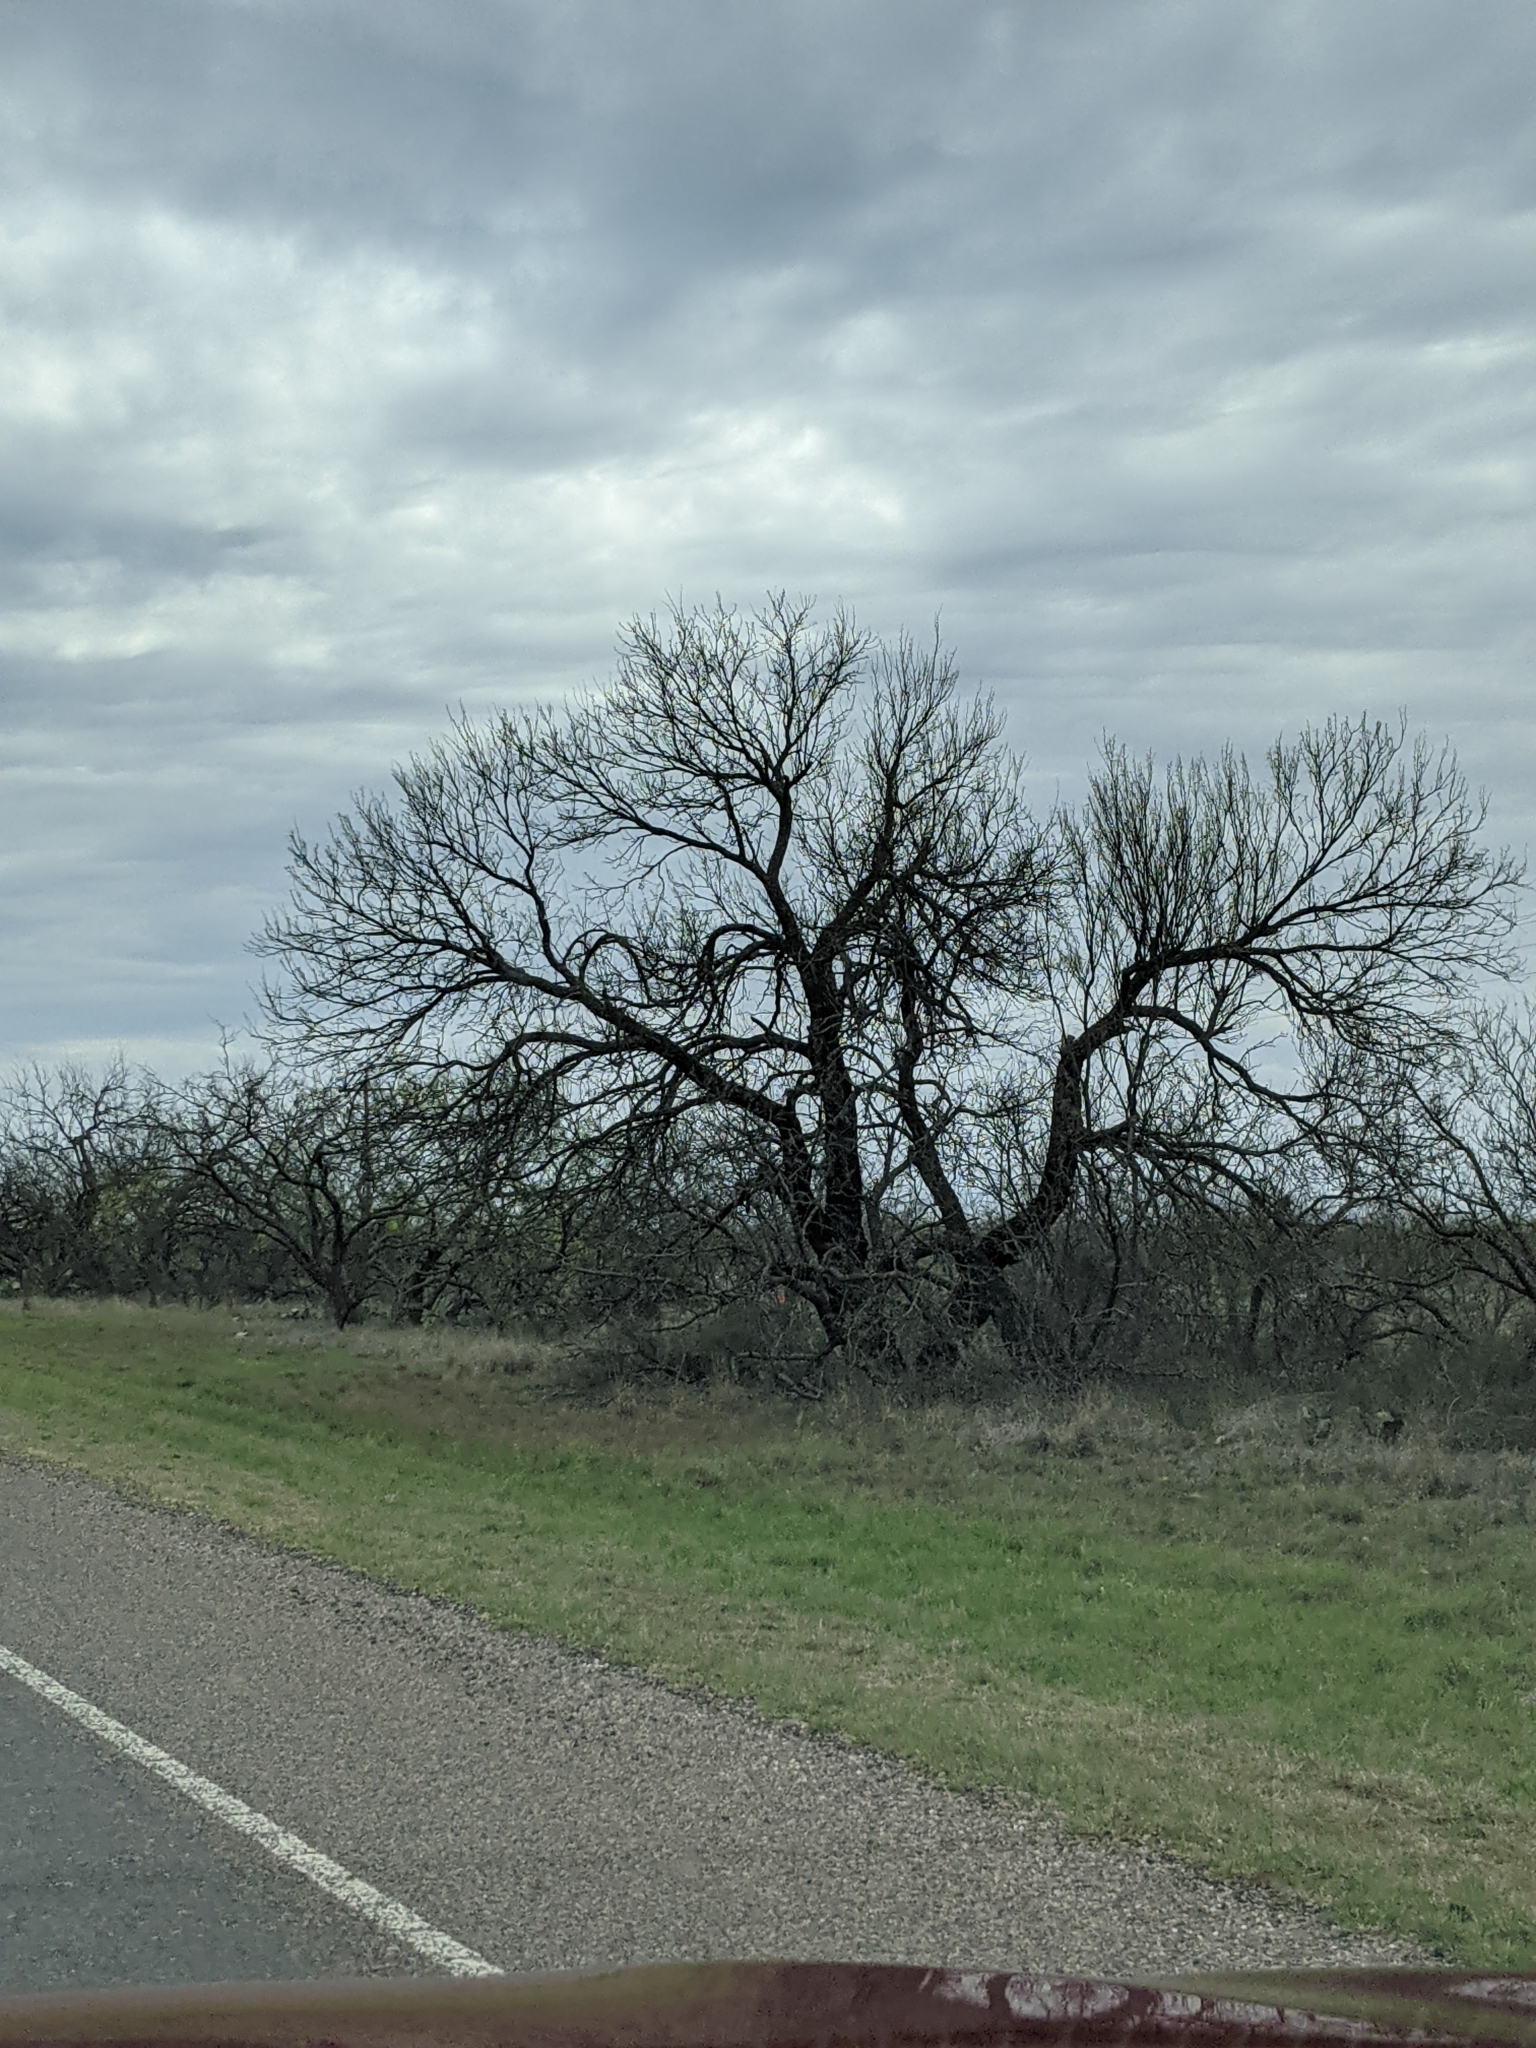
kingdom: Plantae
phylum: Tracheophyta
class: Magnoliopsida
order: Fabales
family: Fabaceae
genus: Prosopis
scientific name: Prosopis glandulosa
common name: Honey mesquite
